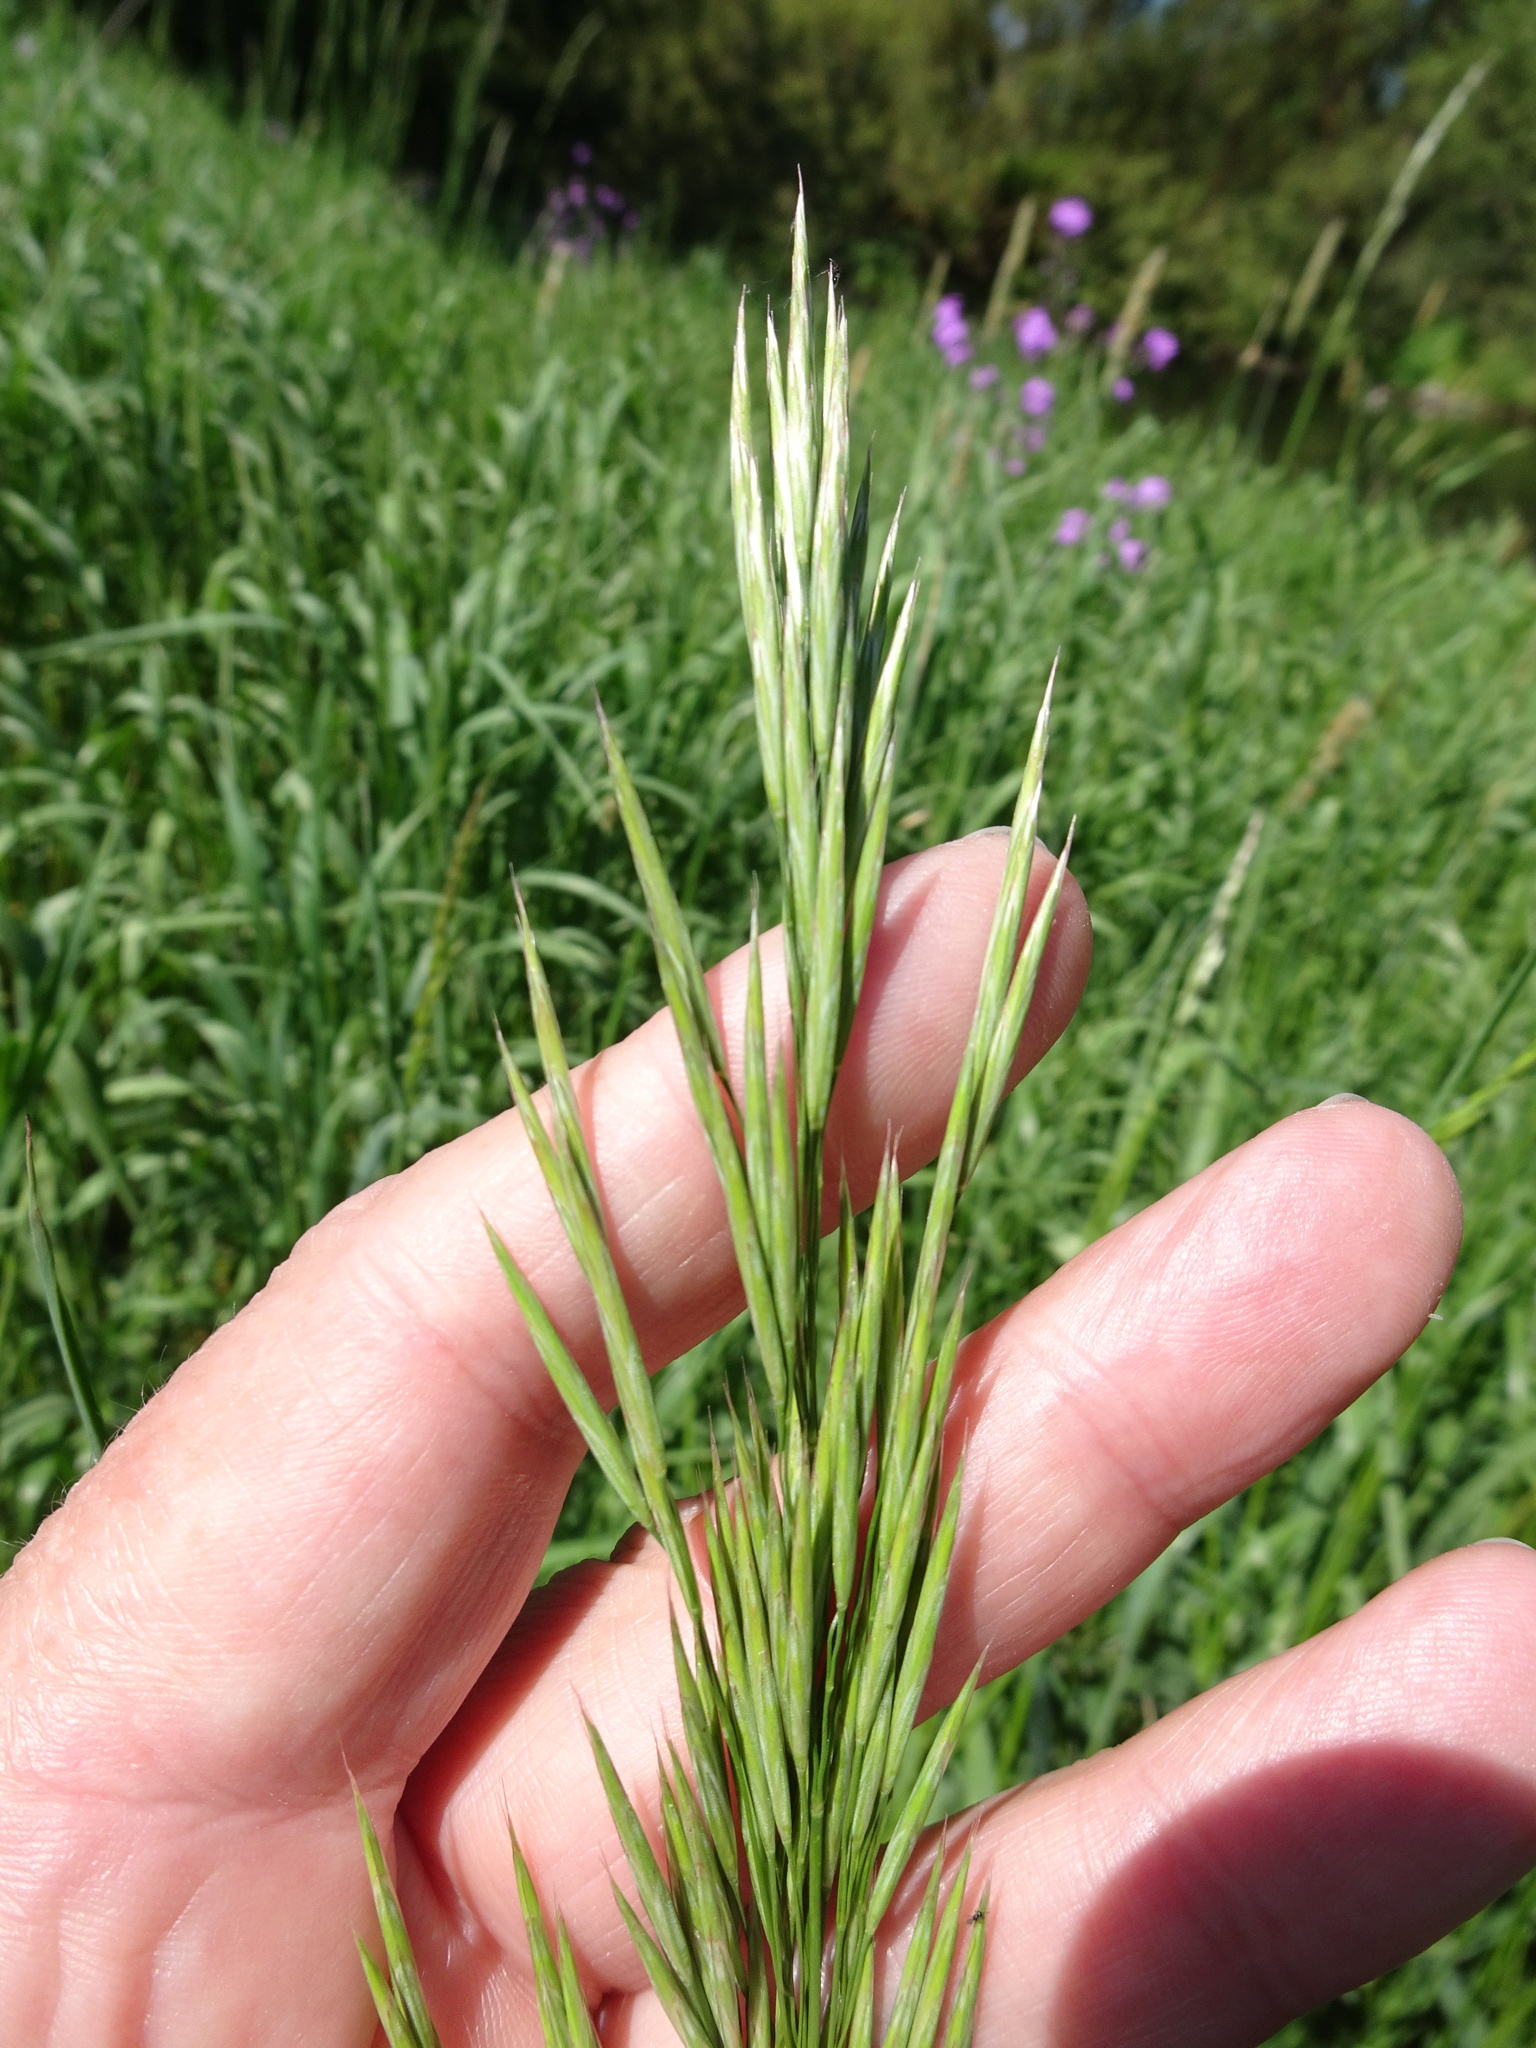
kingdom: Plantae
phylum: Tracheophyta
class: Liliopsida
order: Poales
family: Poaceae
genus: Bromus
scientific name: Bromus inermis
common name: Smooth brome
